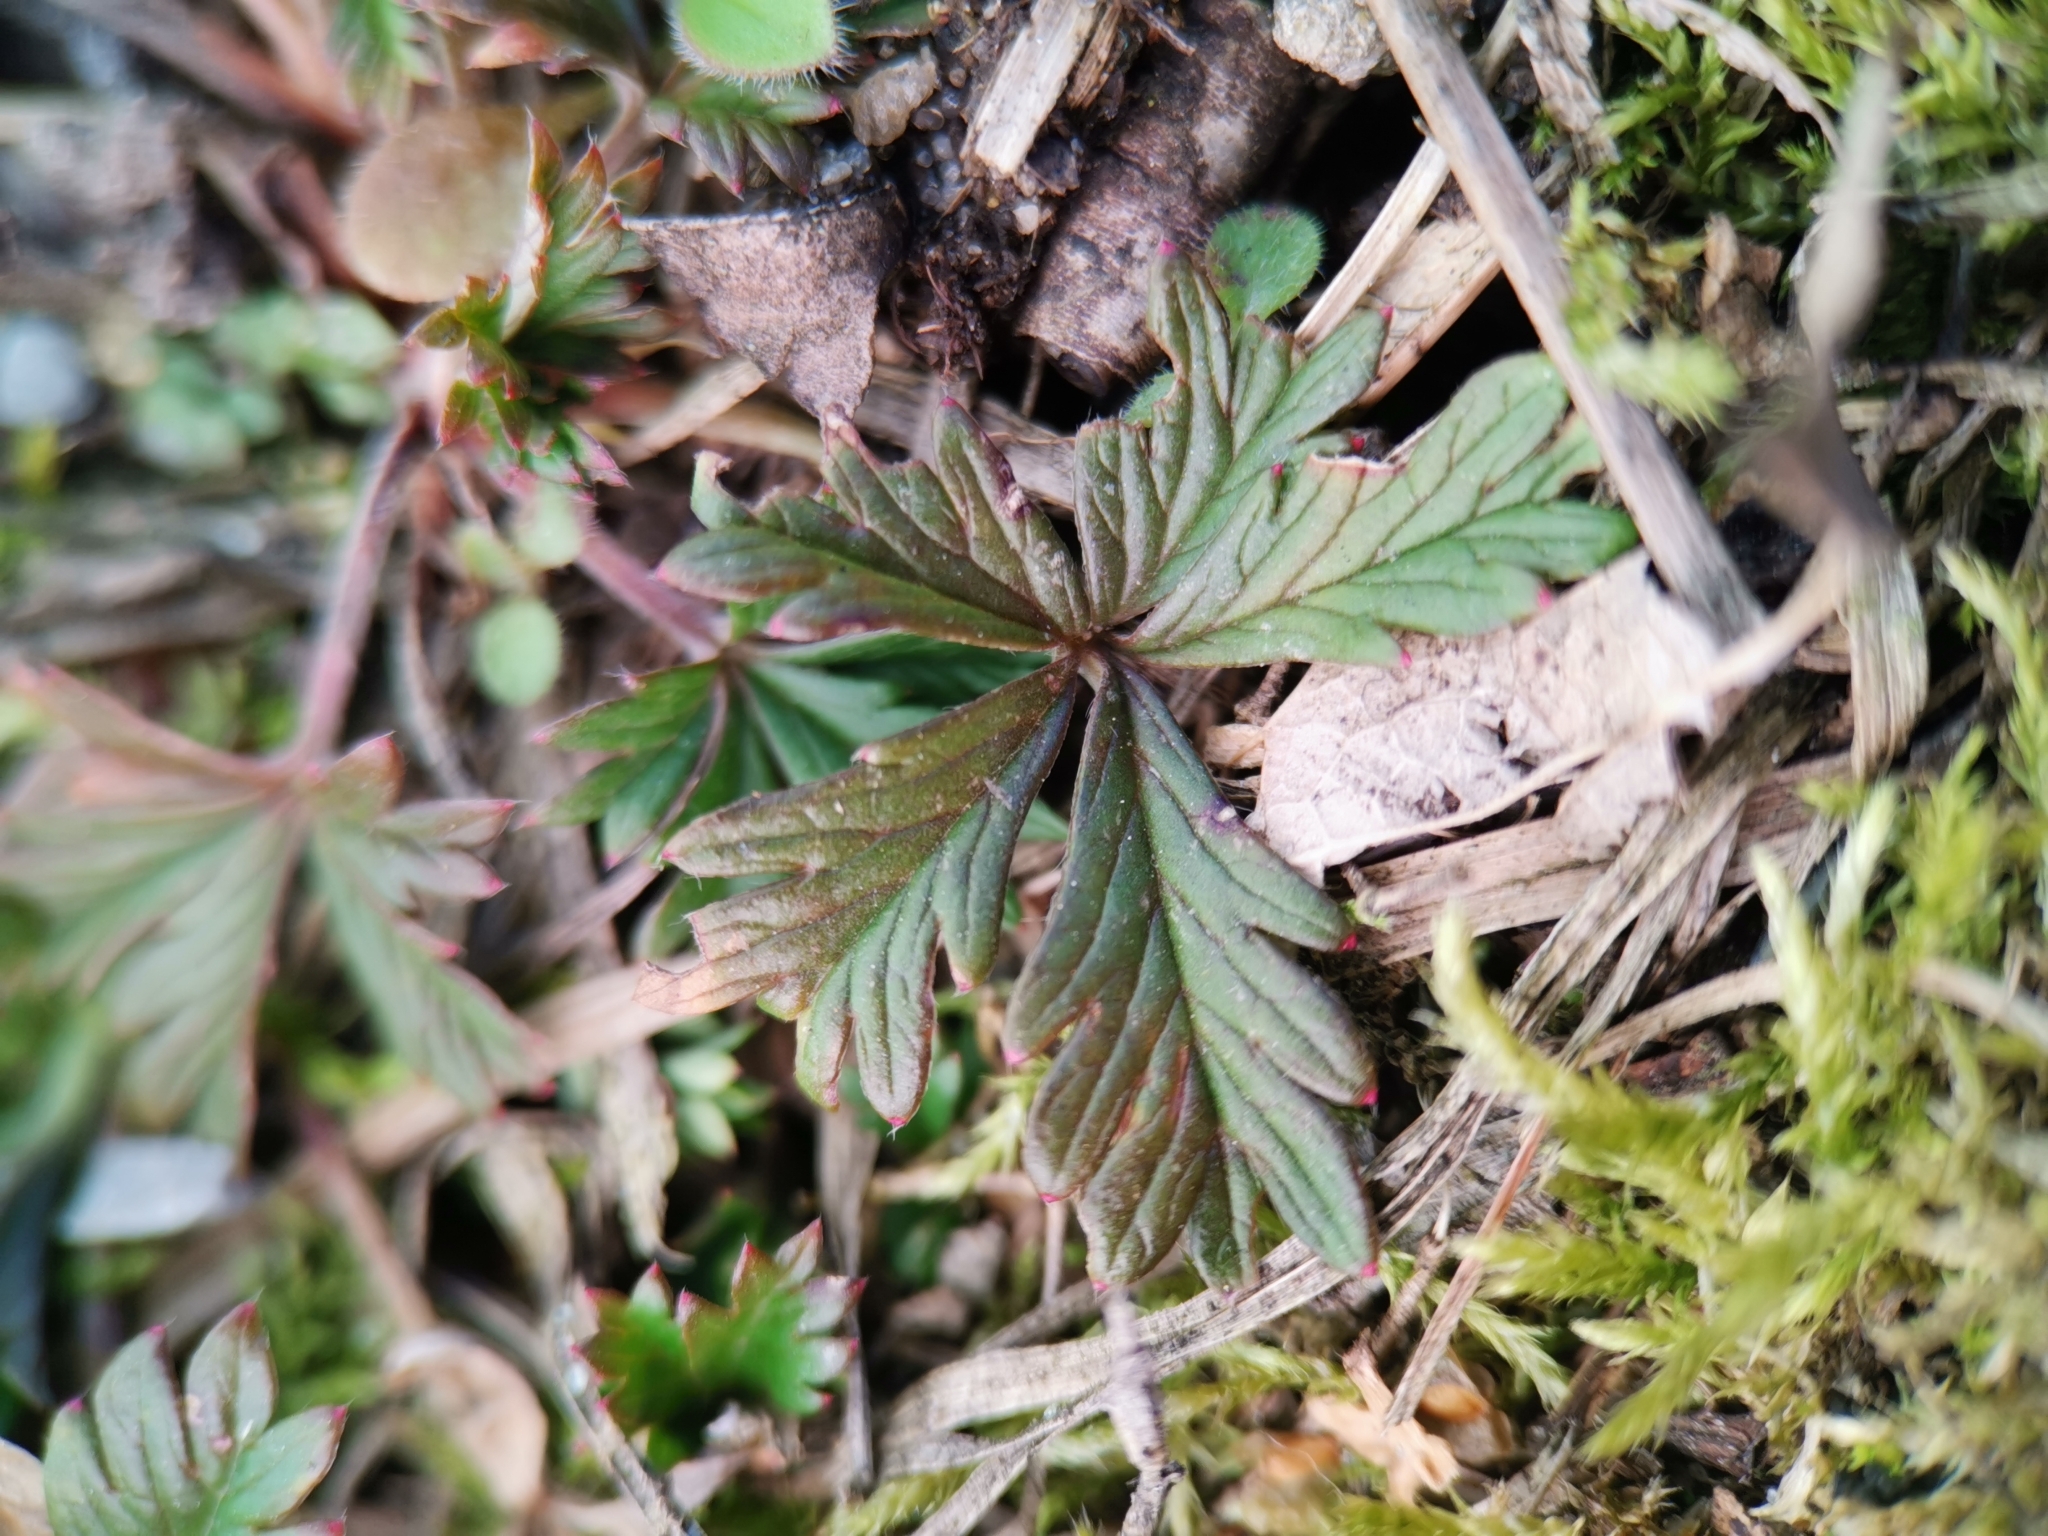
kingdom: Plantae
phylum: Tracheophyta
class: Magnoliopsida
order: Rosales
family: Rosaceae
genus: Potentilla
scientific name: Potentilla argentea
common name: Hoary cinquefoil
